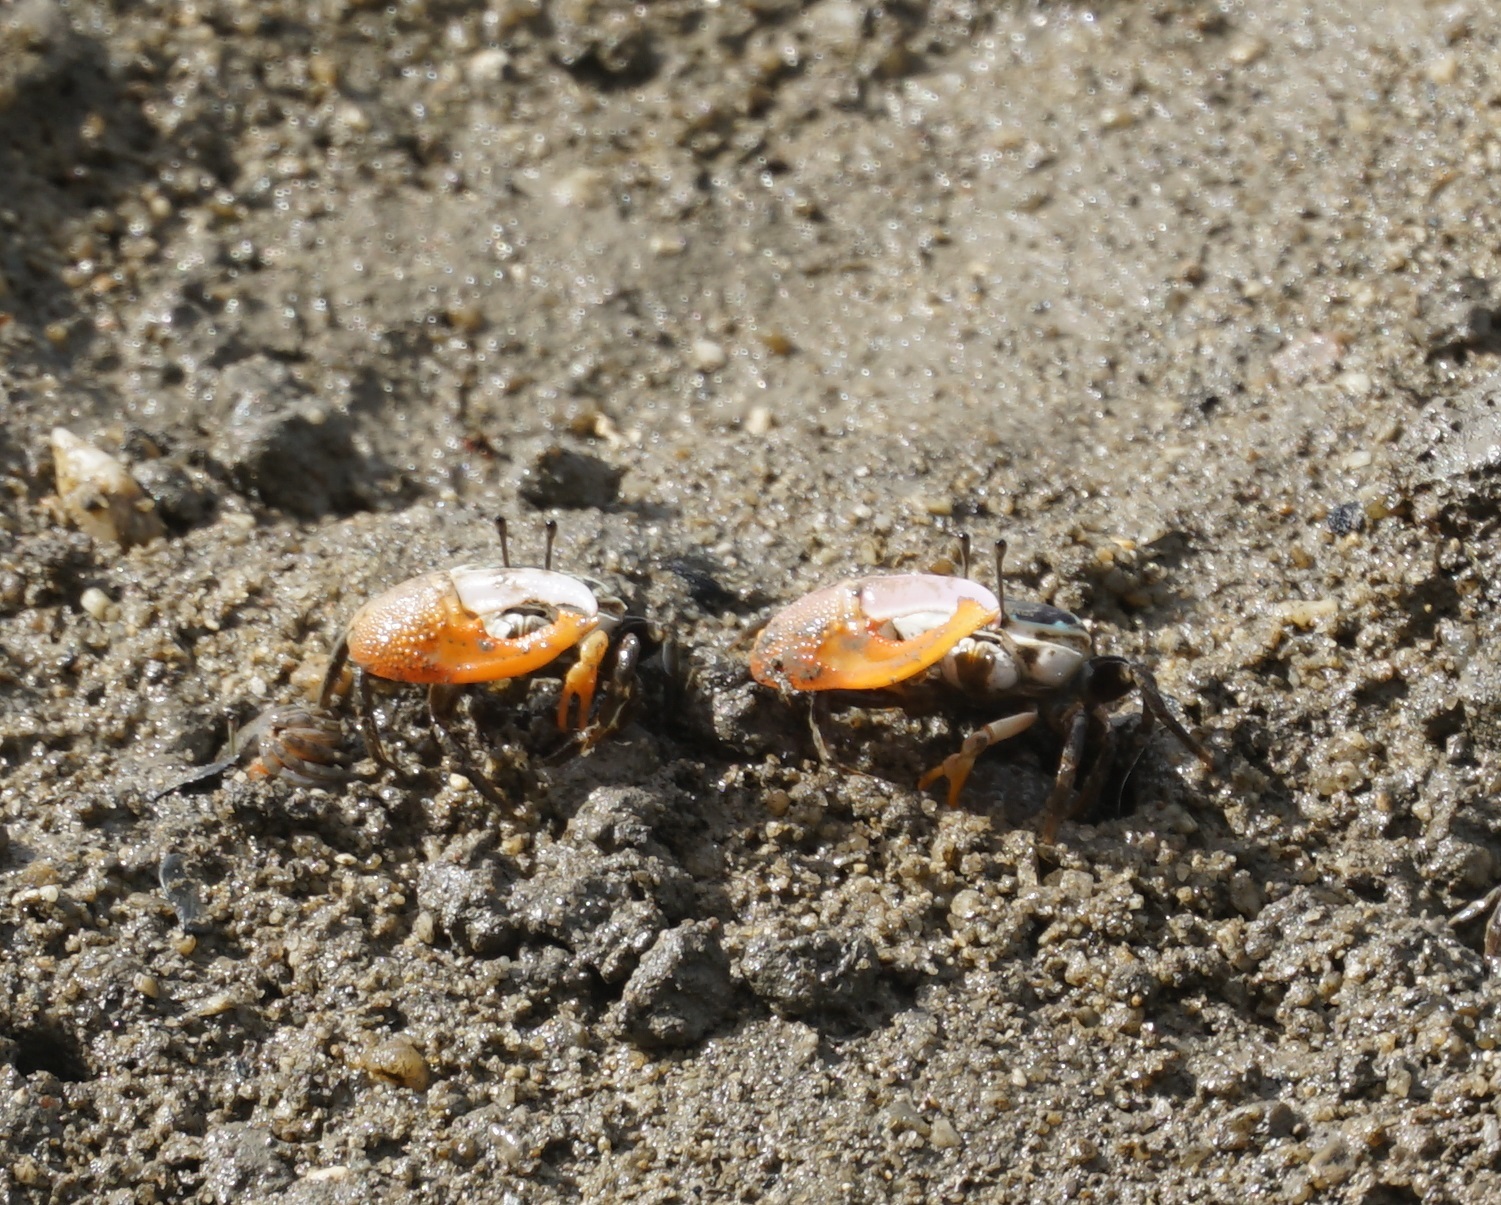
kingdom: Animalia
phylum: Arthropoda
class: Malacostraca
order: Decapoda
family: Ocypodidae
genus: Gelasimus
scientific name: Gelasimus vomeris
